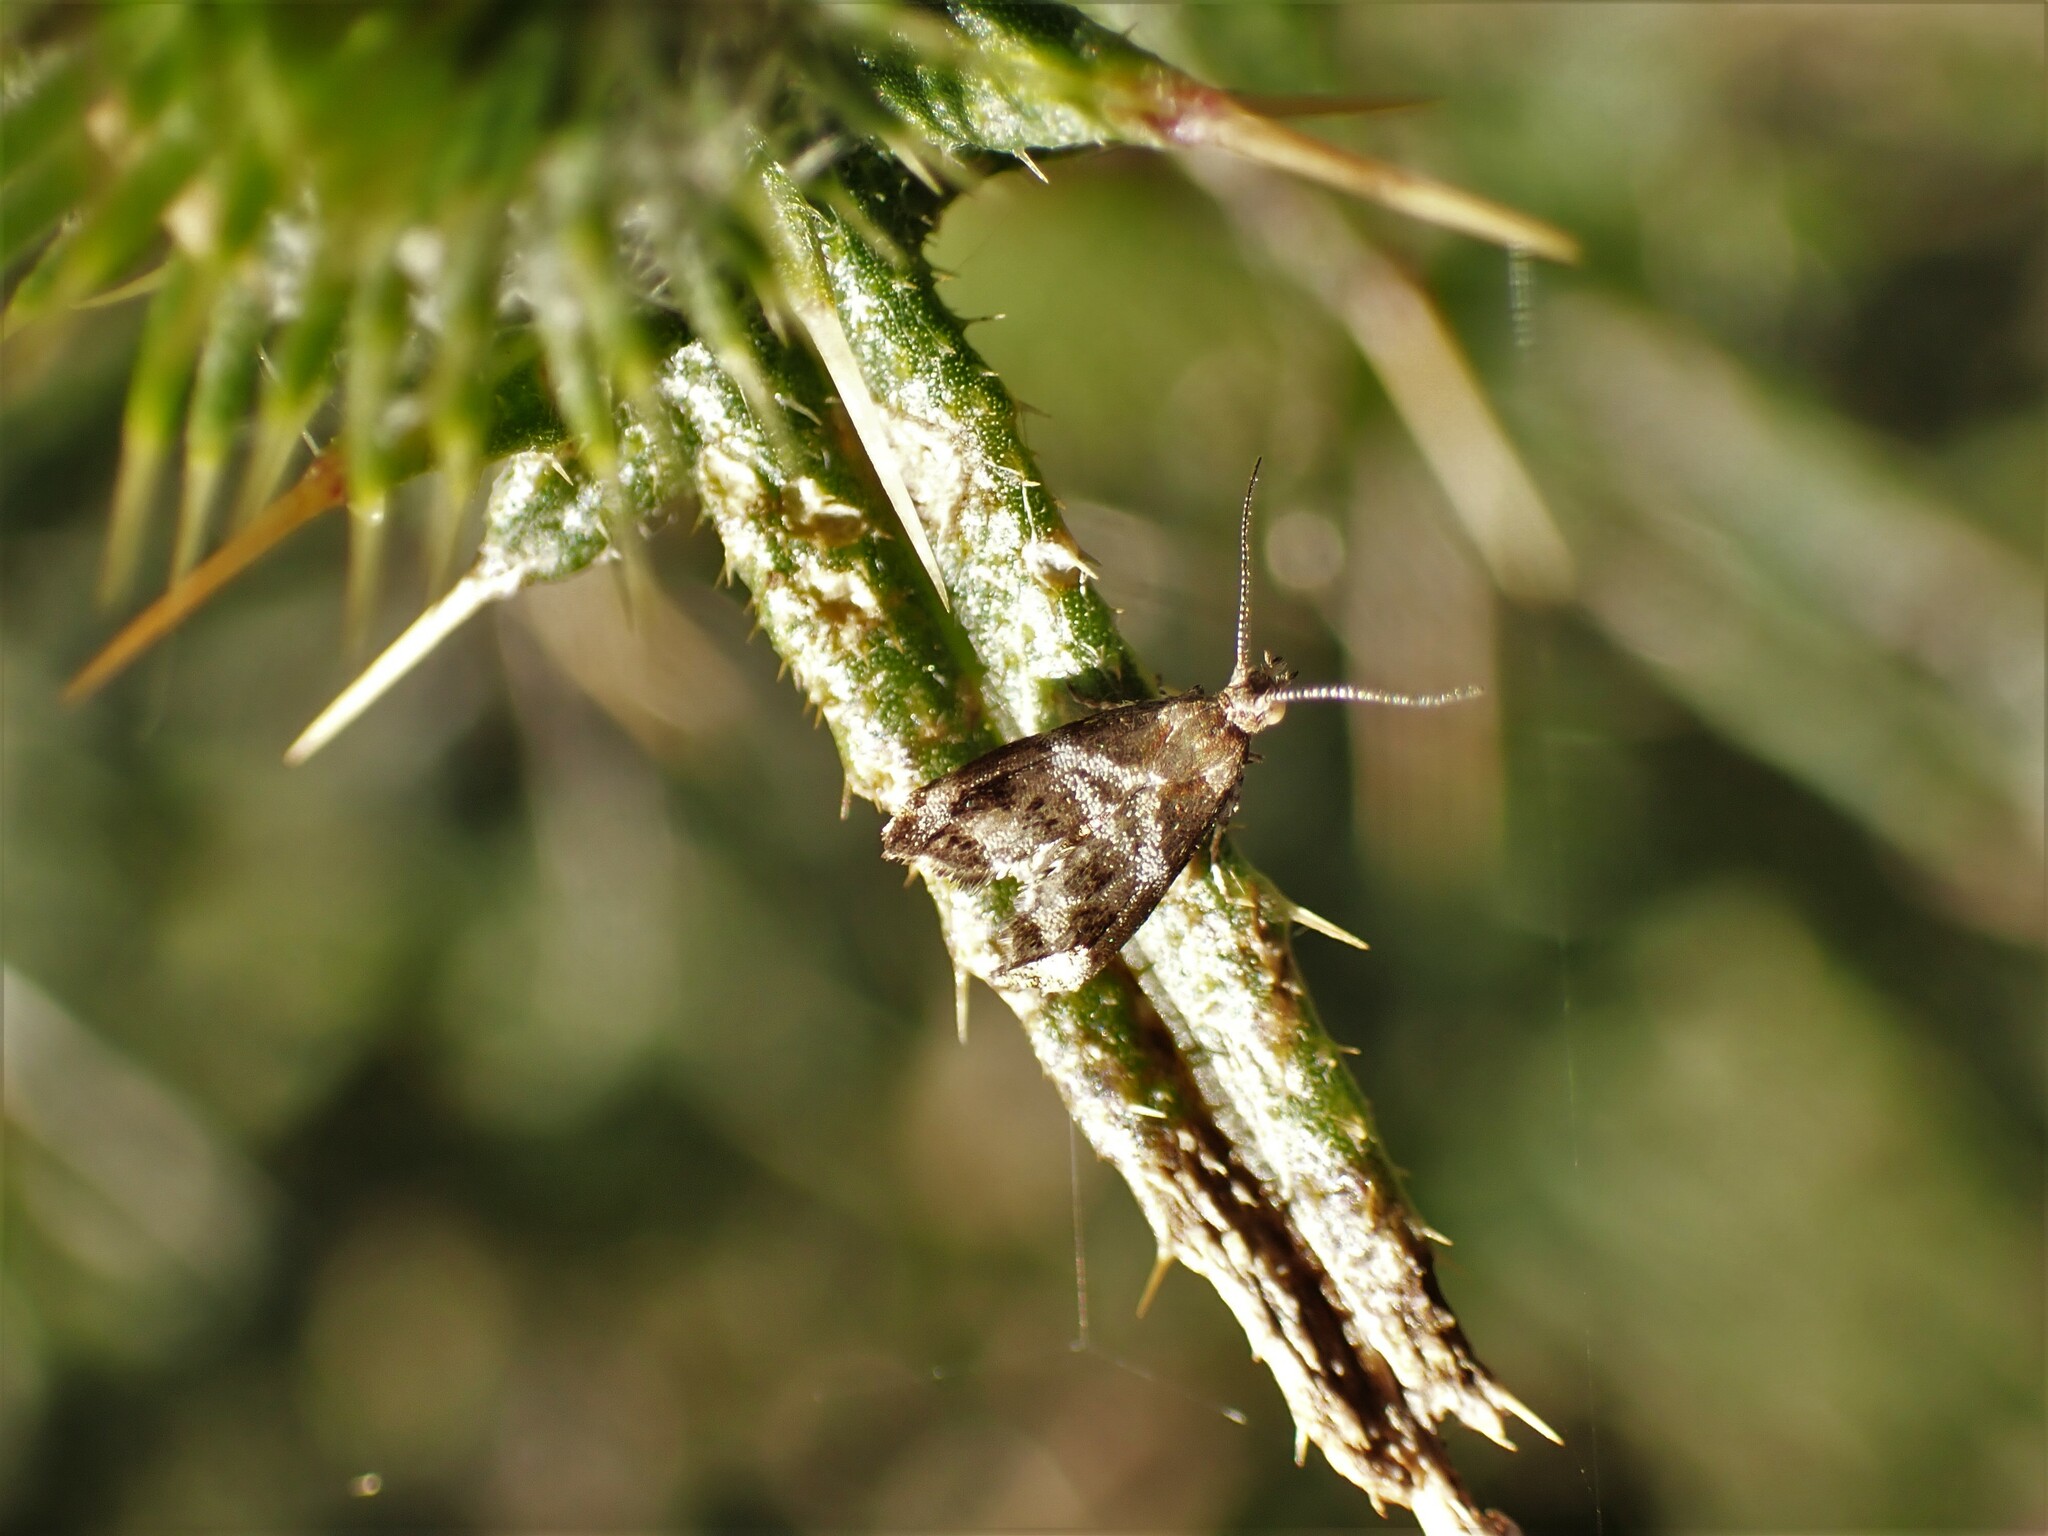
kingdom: Animalia
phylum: Arthropoda
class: Insecta
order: Lepidoptera
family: Choreutidae
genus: Tebenna
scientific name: Tebenna micalis
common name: Vagrant twitcher
